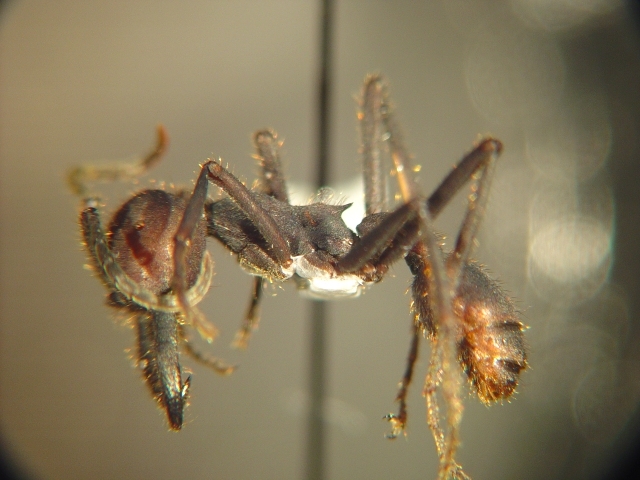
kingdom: Animalia
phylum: Arthropoda
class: Insecta
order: Hymenoptera
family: Formicidae
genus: Eciton
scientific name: Eciton quadriglume
